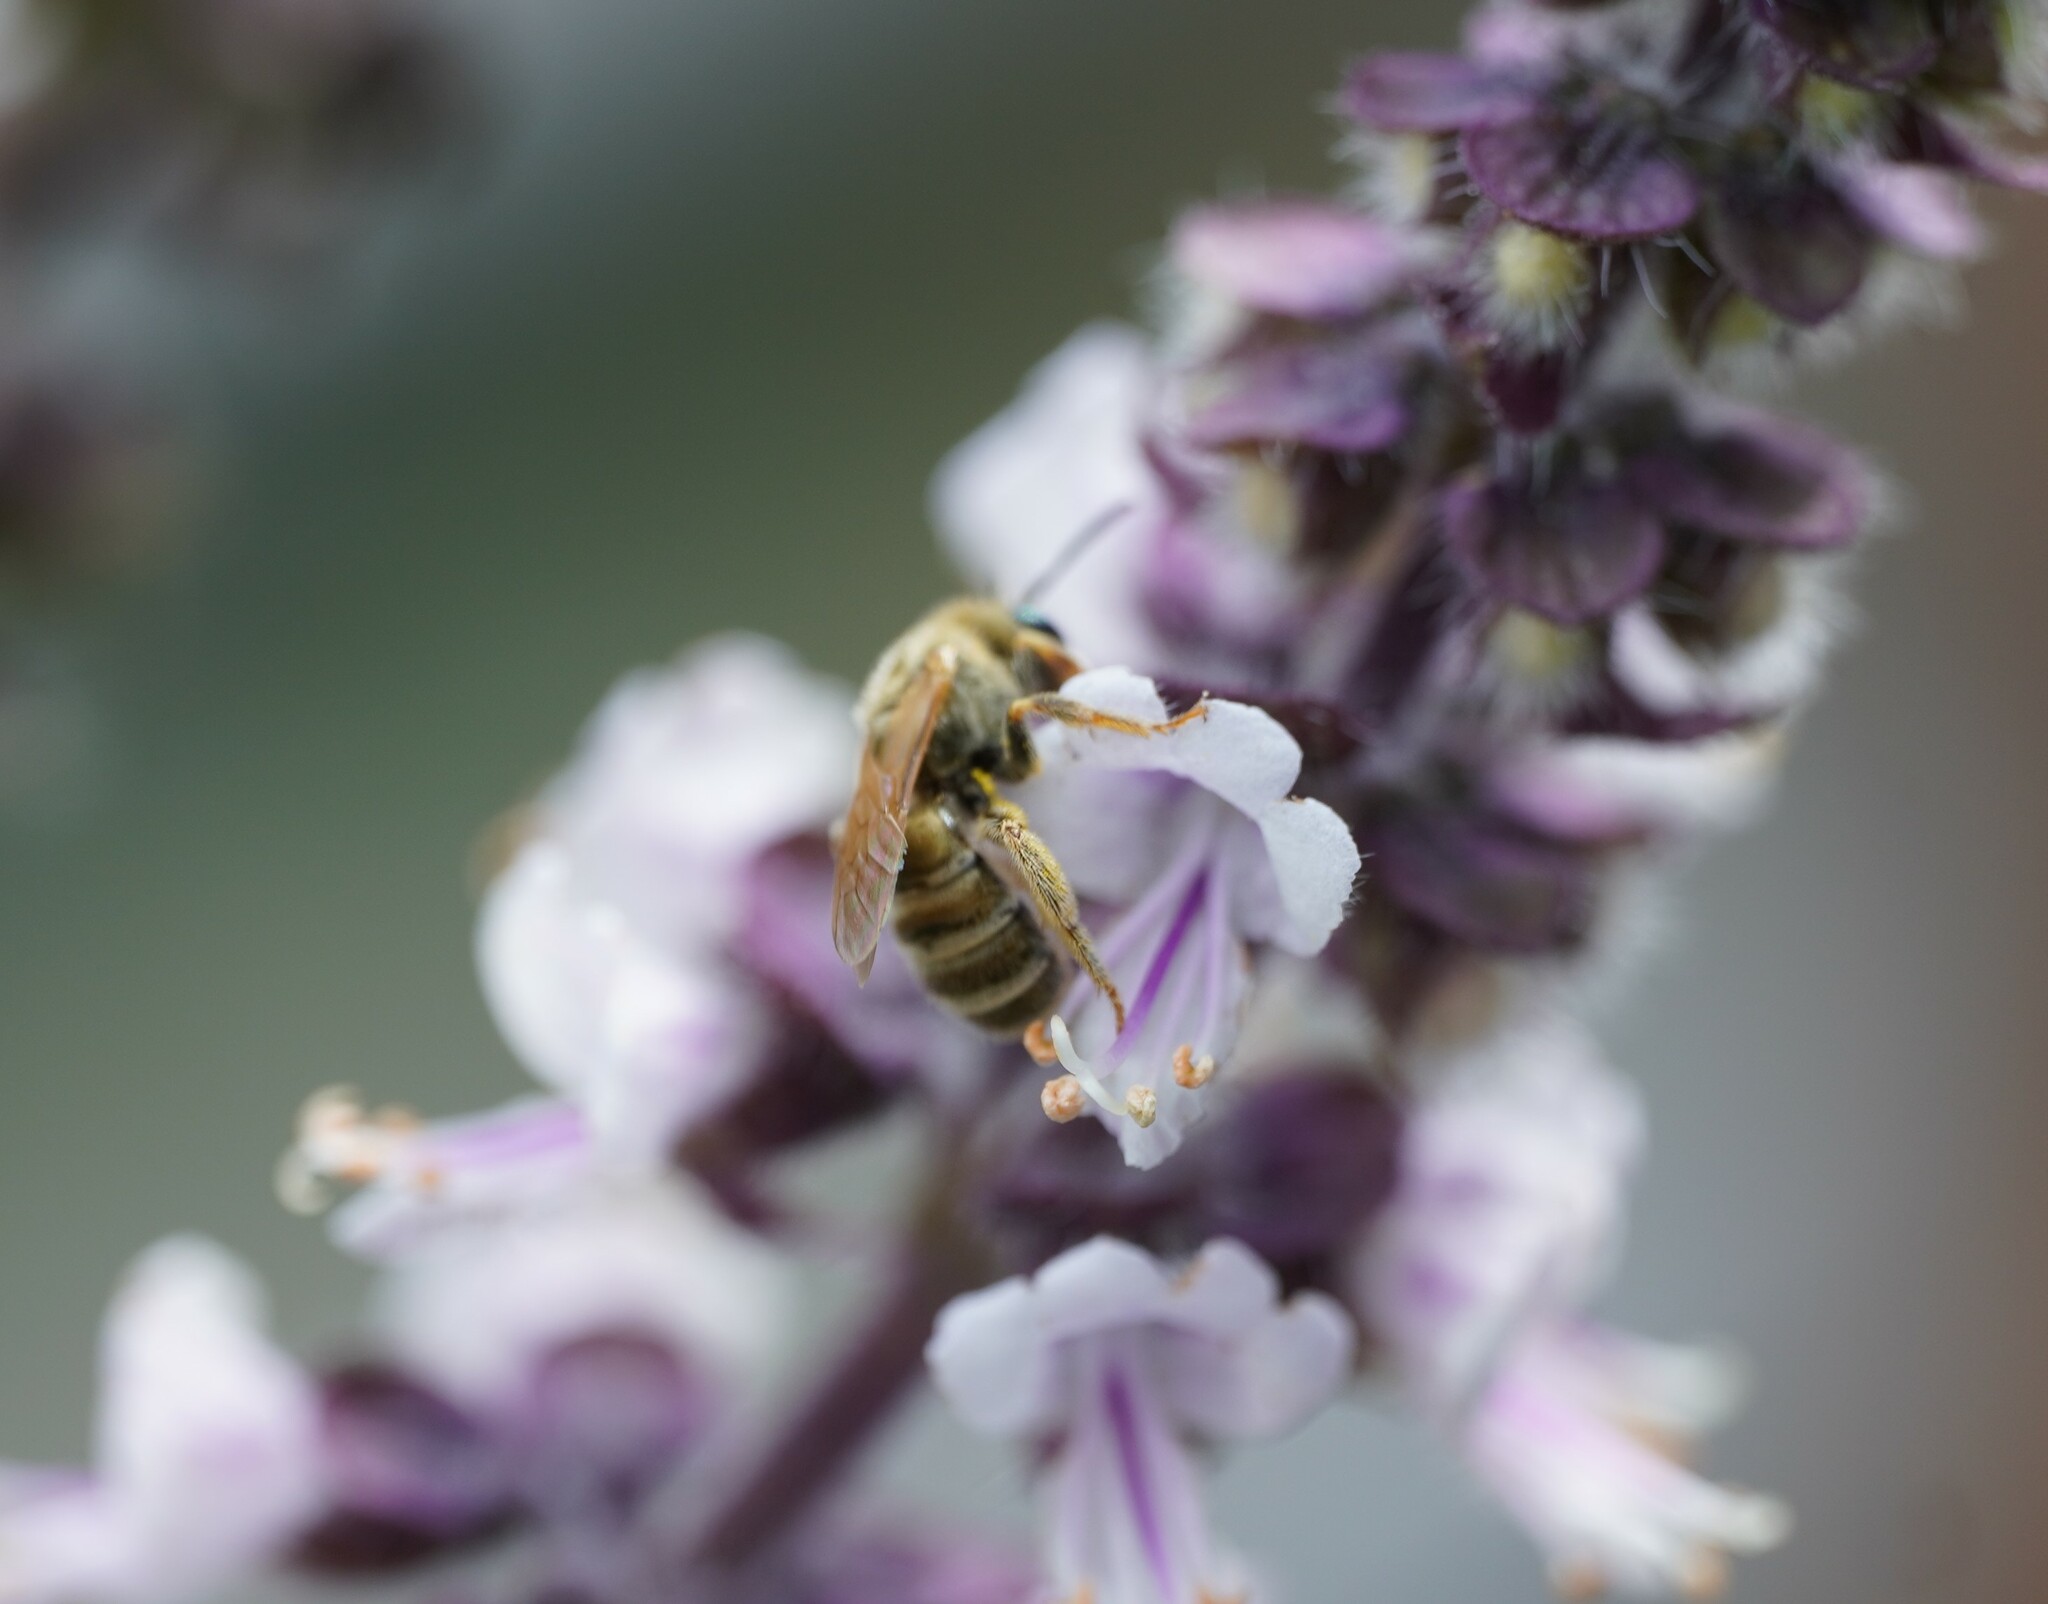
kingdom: Animalia
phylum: Arthropoda
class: Insecta
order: Hymenoptera
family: Halictidae
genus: Halictus
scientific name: Halictus subauratus
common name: Golden furrow bee
